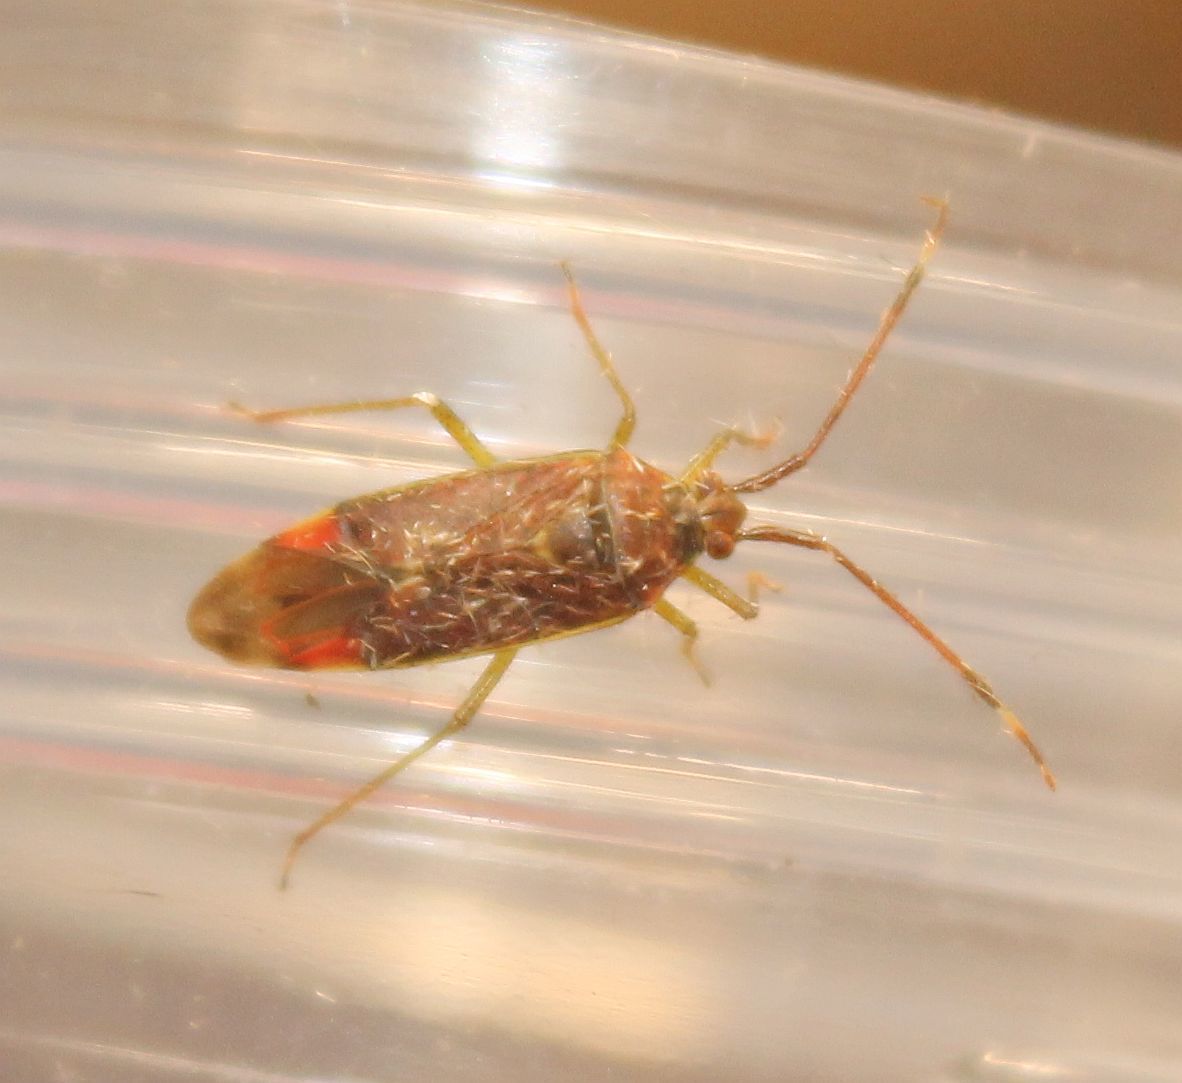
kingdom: Animalia
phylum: Arthropoda
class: Insecta
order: Hemiptera
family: Miridae
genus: Pantilius
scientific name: Pantilius tunicatus
